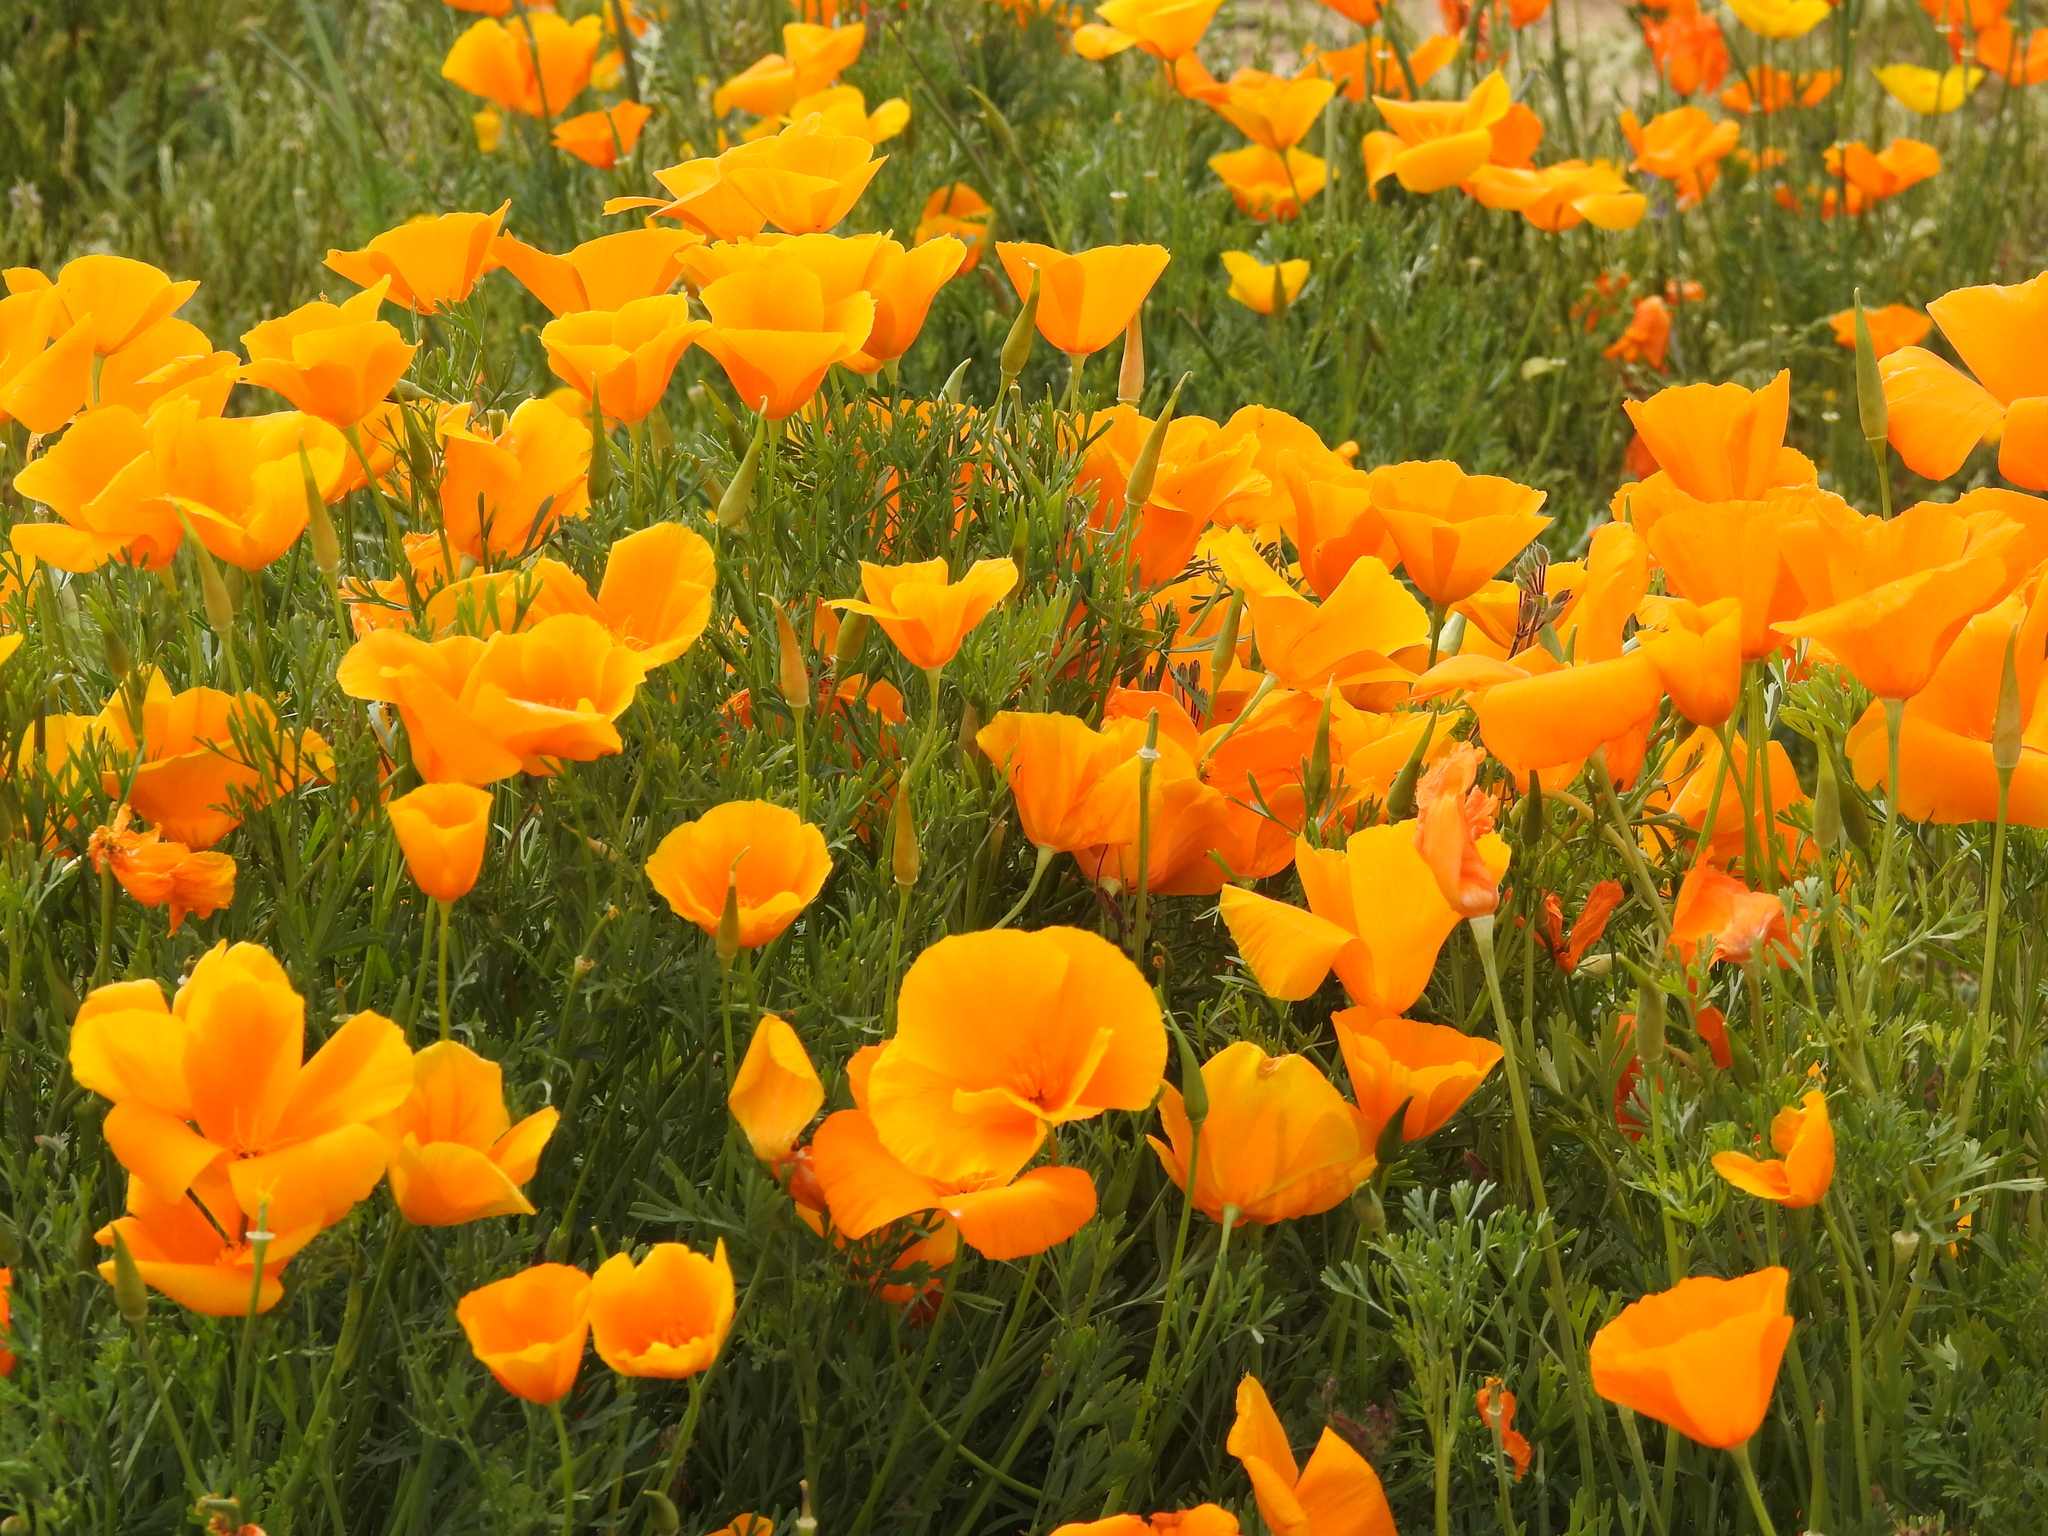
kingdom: Plantae
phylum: Tracheophyta
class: Magnoliopsida
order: Ranunculales
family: Papaveraceae
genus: Eschscholzia
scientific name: Eschscholzia californica
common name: California poppy
